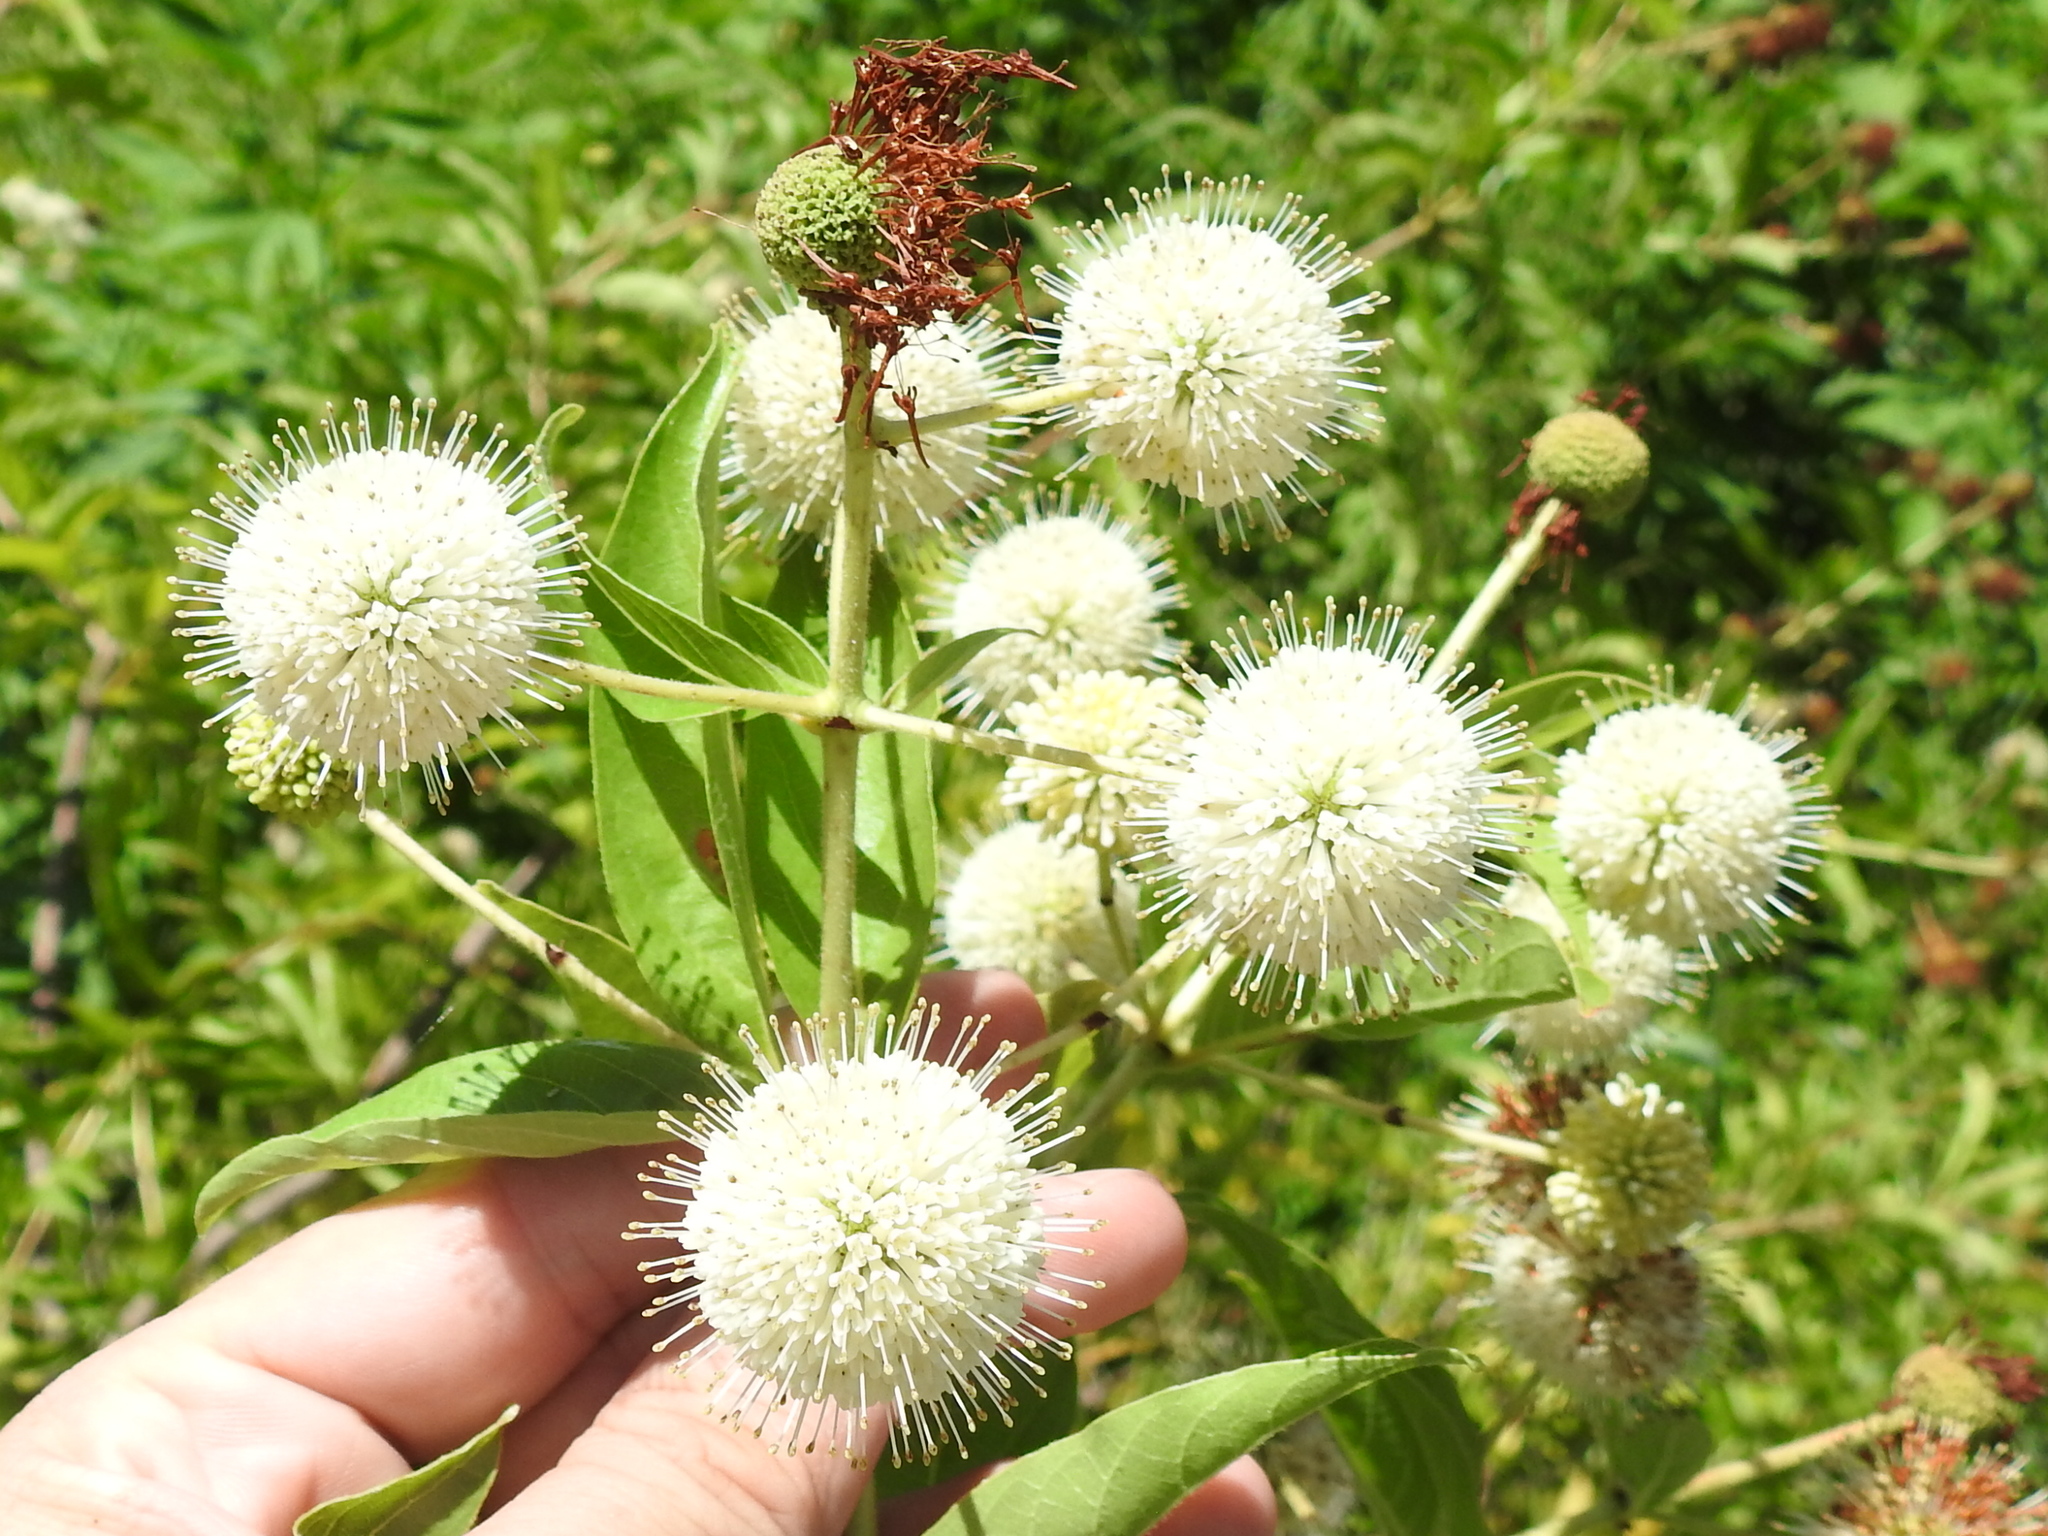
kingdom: Plantae
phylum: Tracheophyta
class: Magnoliopsida
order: Gentianales
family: Rubiaceae
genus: Cephalanthus
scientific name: Cephalanthus occidentalis
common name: Button-willow
